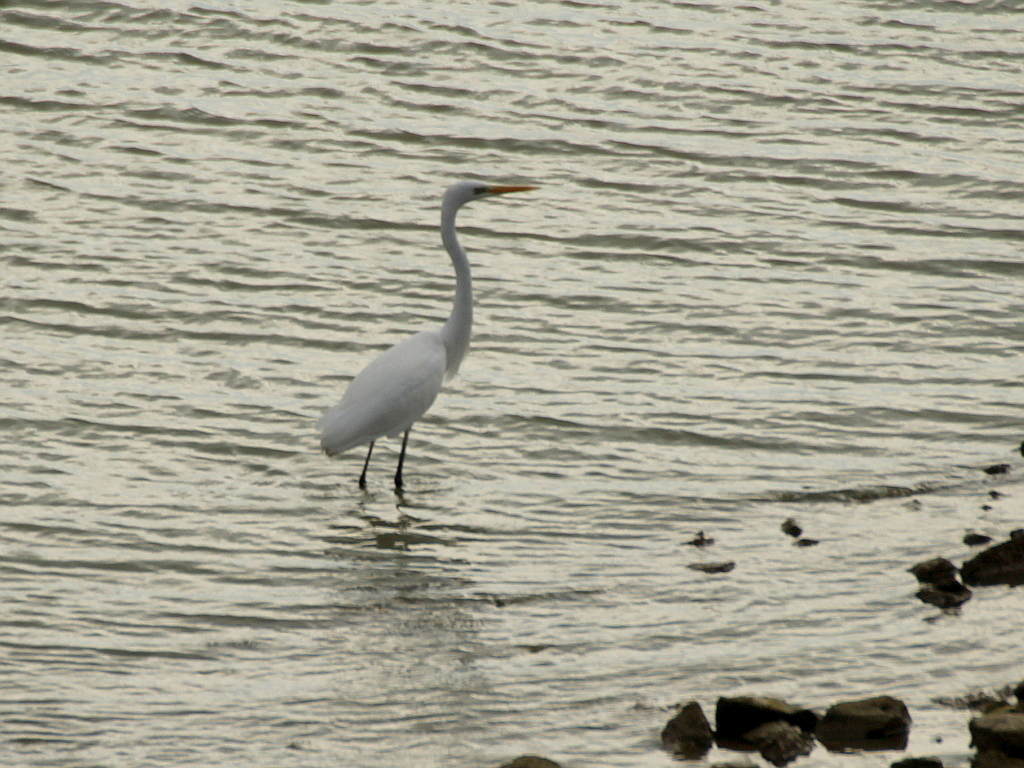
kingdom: Animalia
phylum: Chordata
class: Aves
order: Pelecaniformes
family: Ardeidae
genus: Ardea
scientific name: Ardea alba
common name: Great egret
